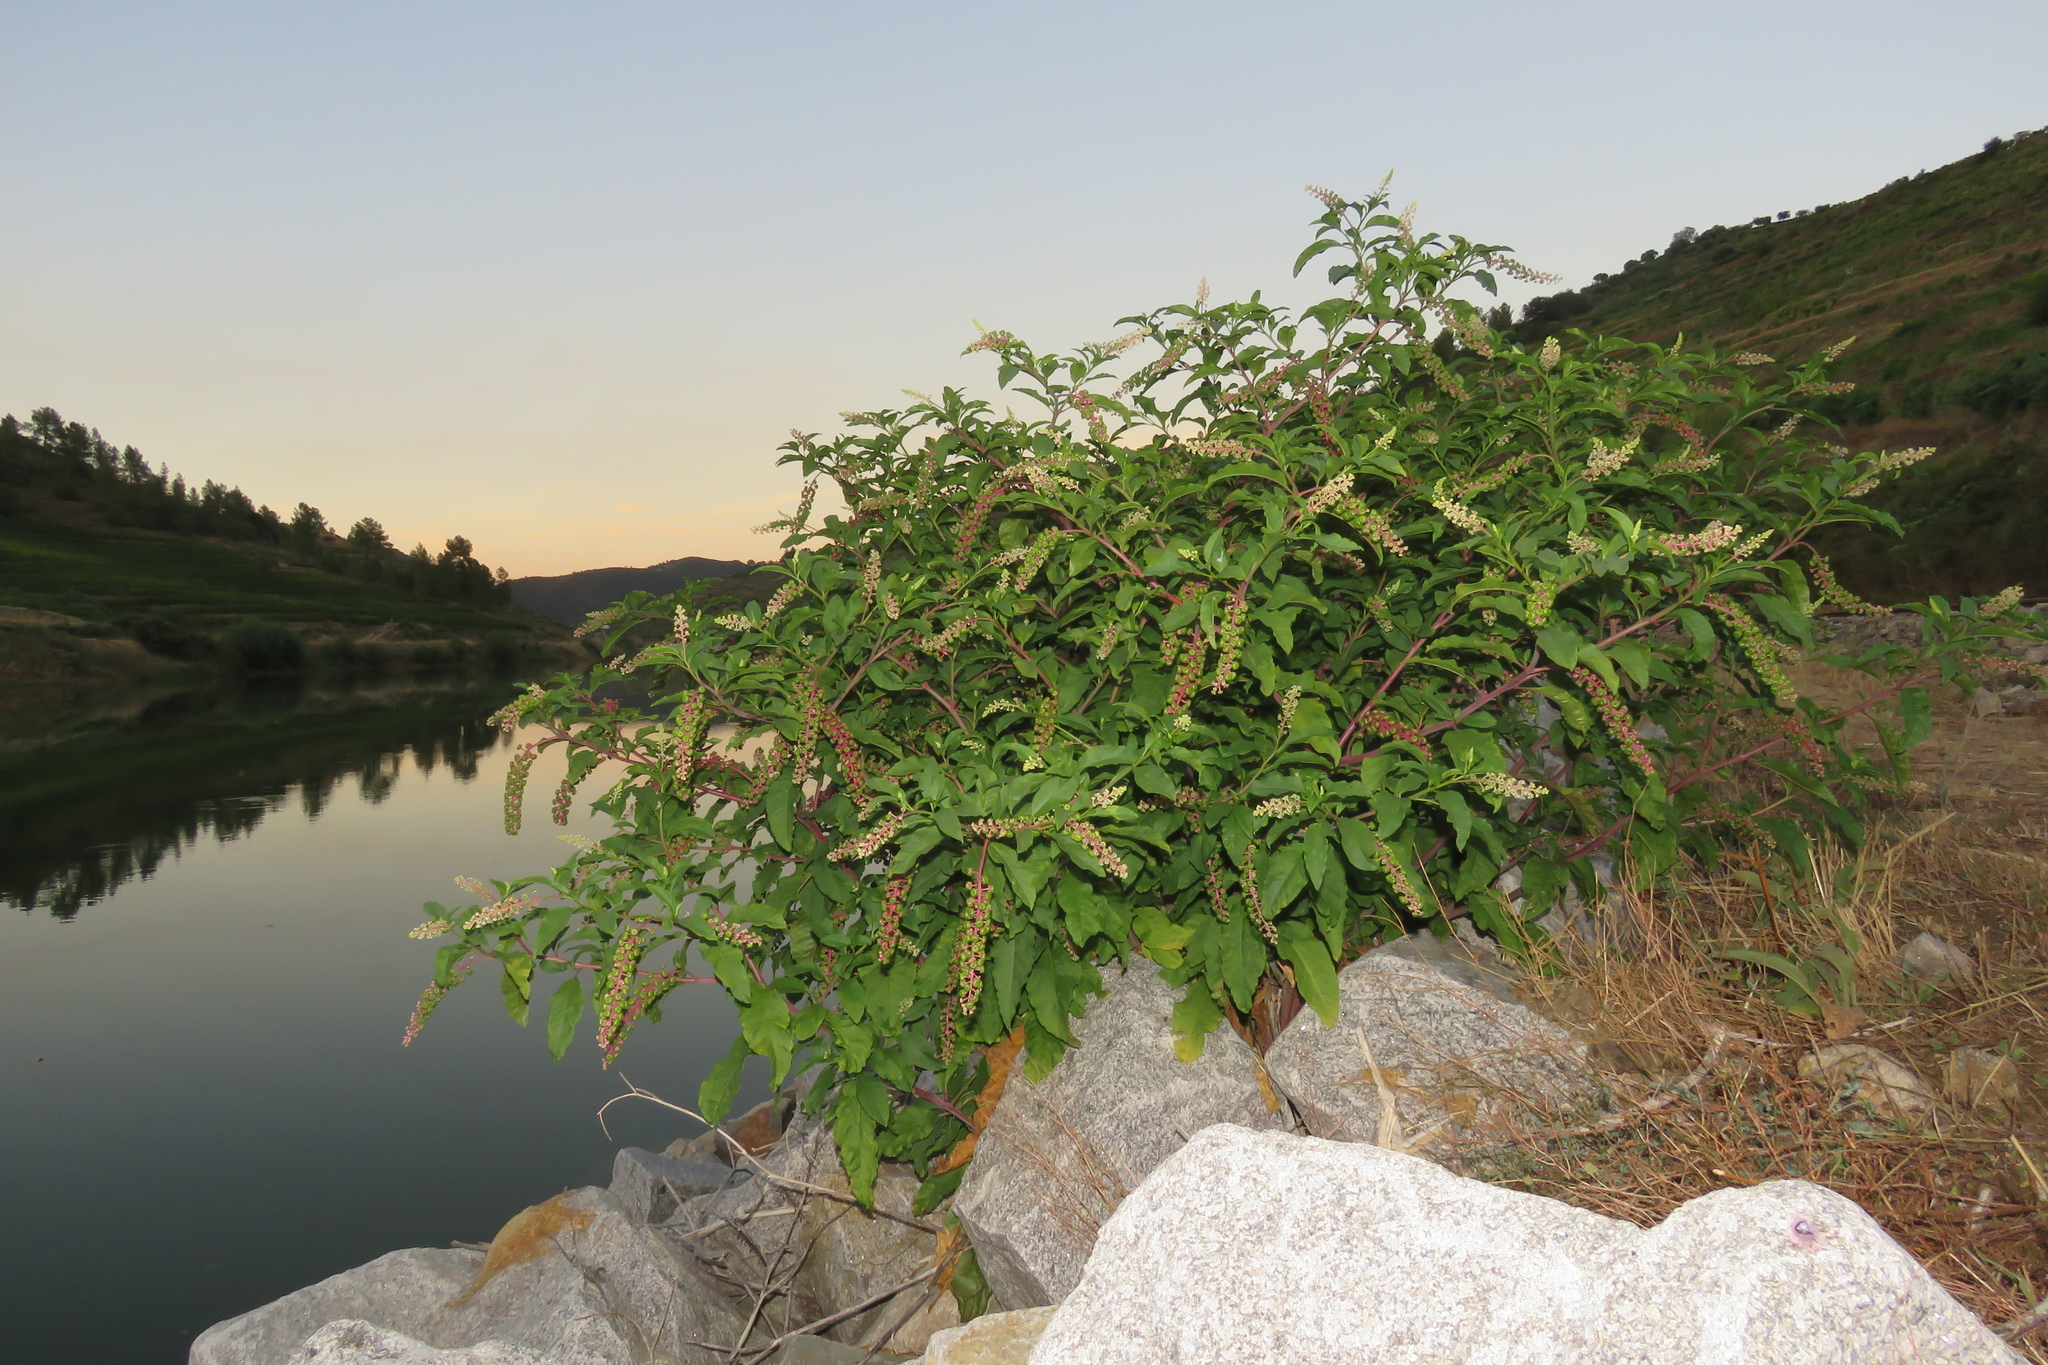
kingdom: Plantae
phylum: Tracheophyta
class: Magnoliopsida
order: Caryophyllales
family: Phytolaccaceae
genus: Phytolacca
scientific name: Phytolacca americana
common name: American pokeweed
